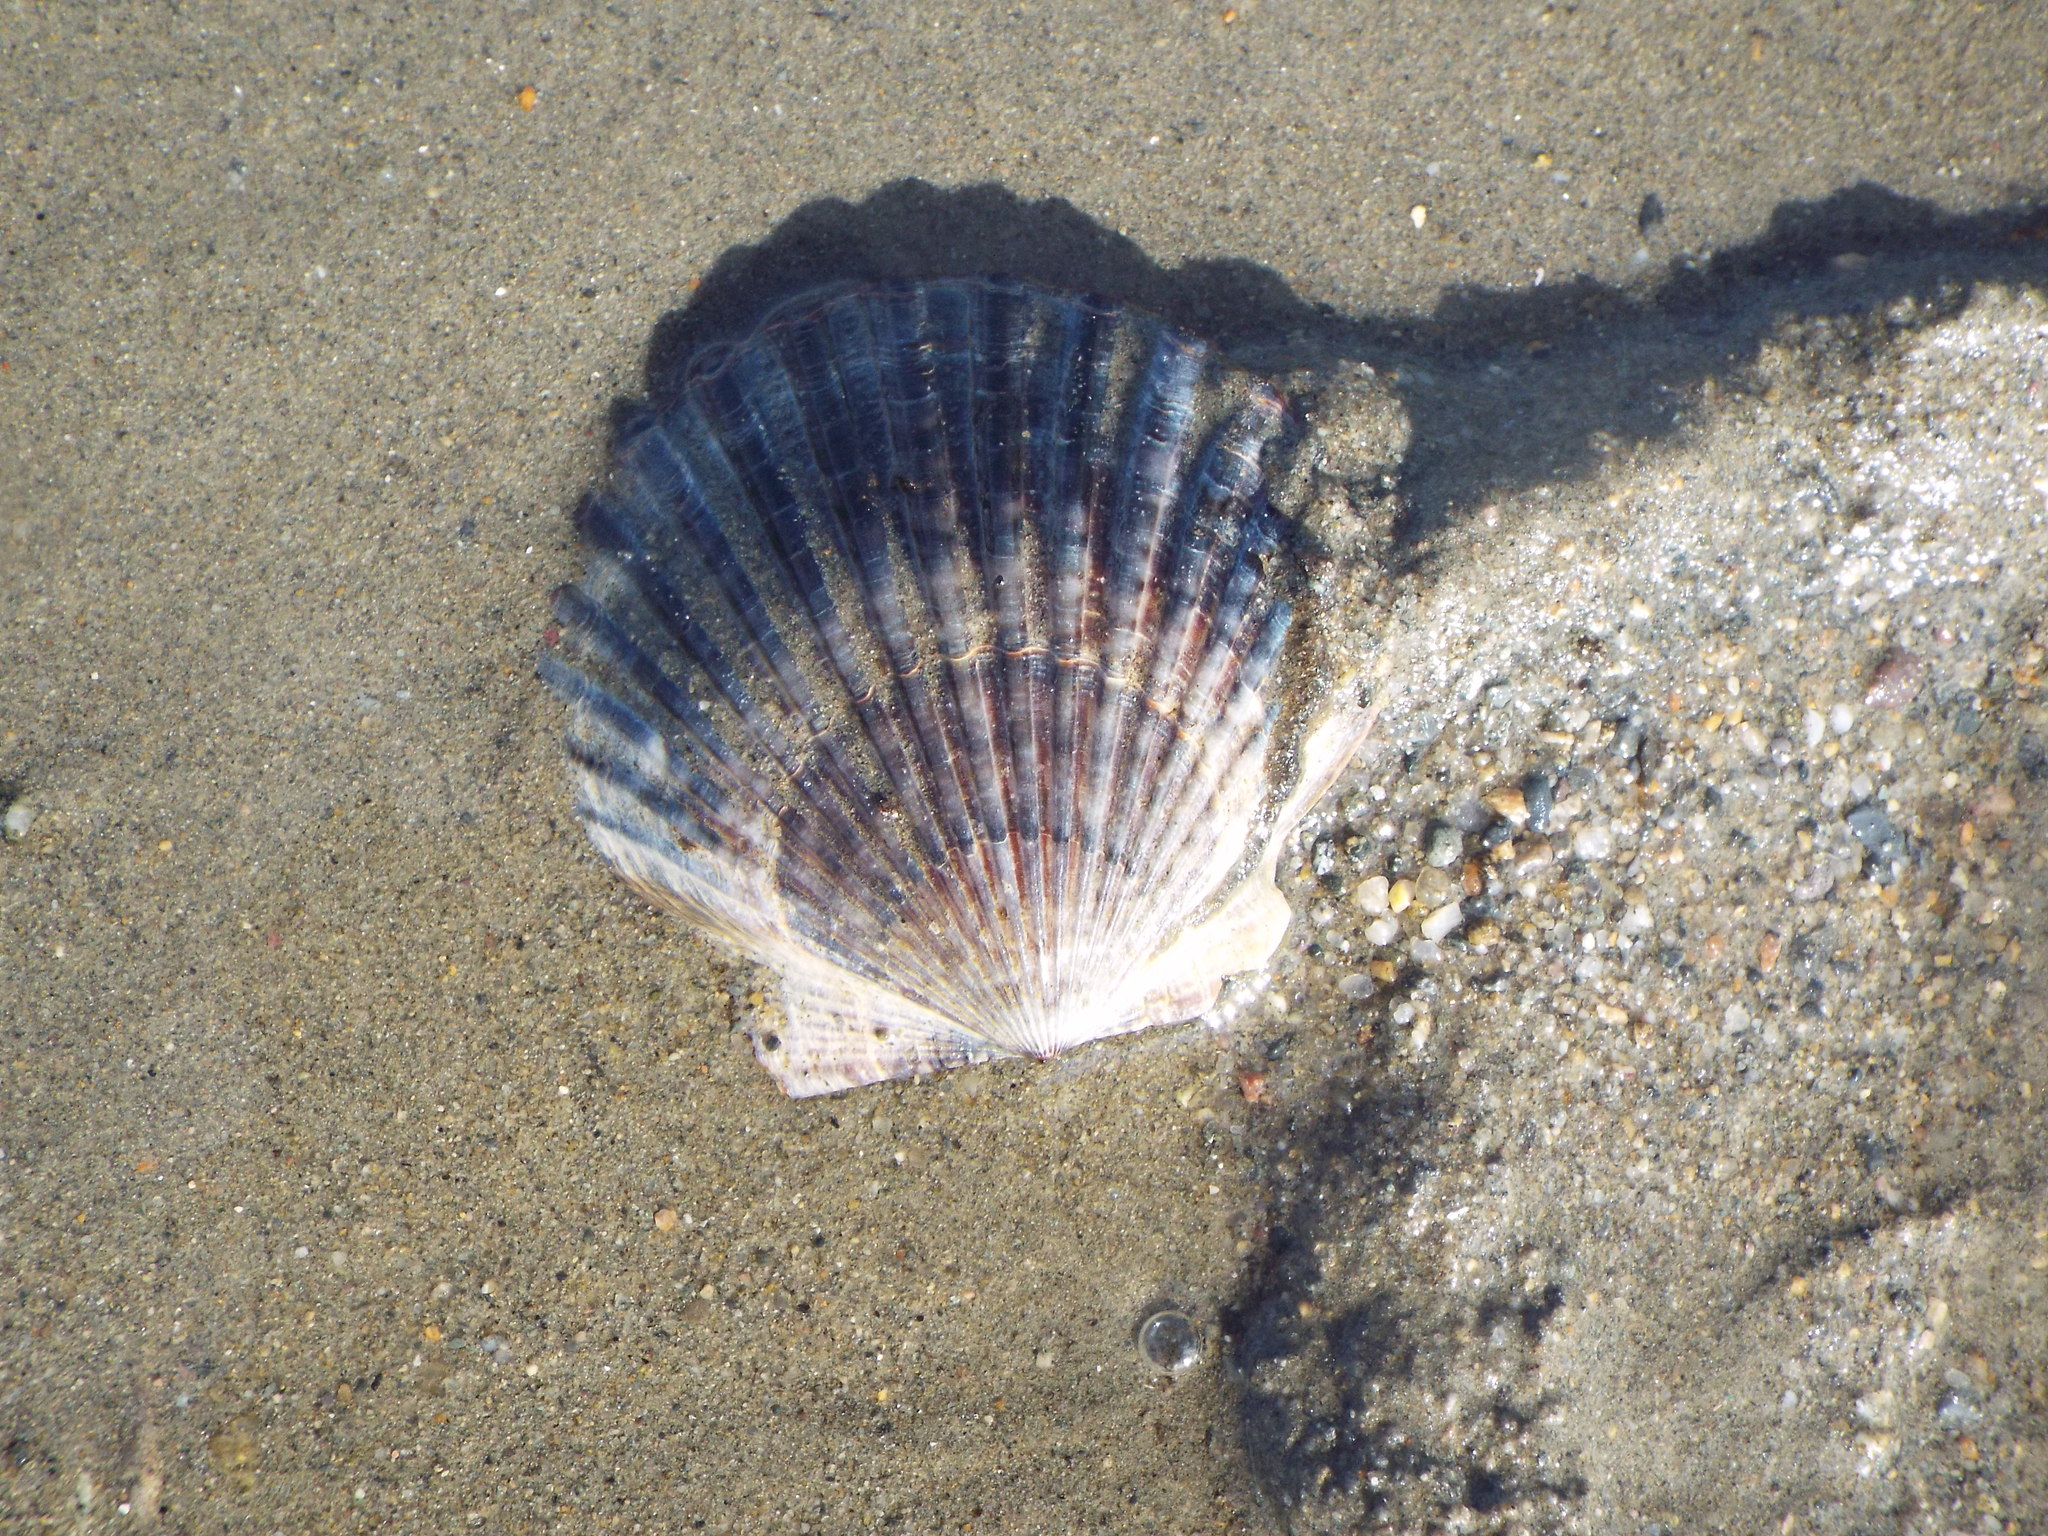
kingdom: Animalia
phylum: Mollusca
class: Bivalvia
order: Pectinida
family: Pectinidae
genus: Argopecten
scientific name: Argopecten irradians
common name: Atlantic bay scallop
